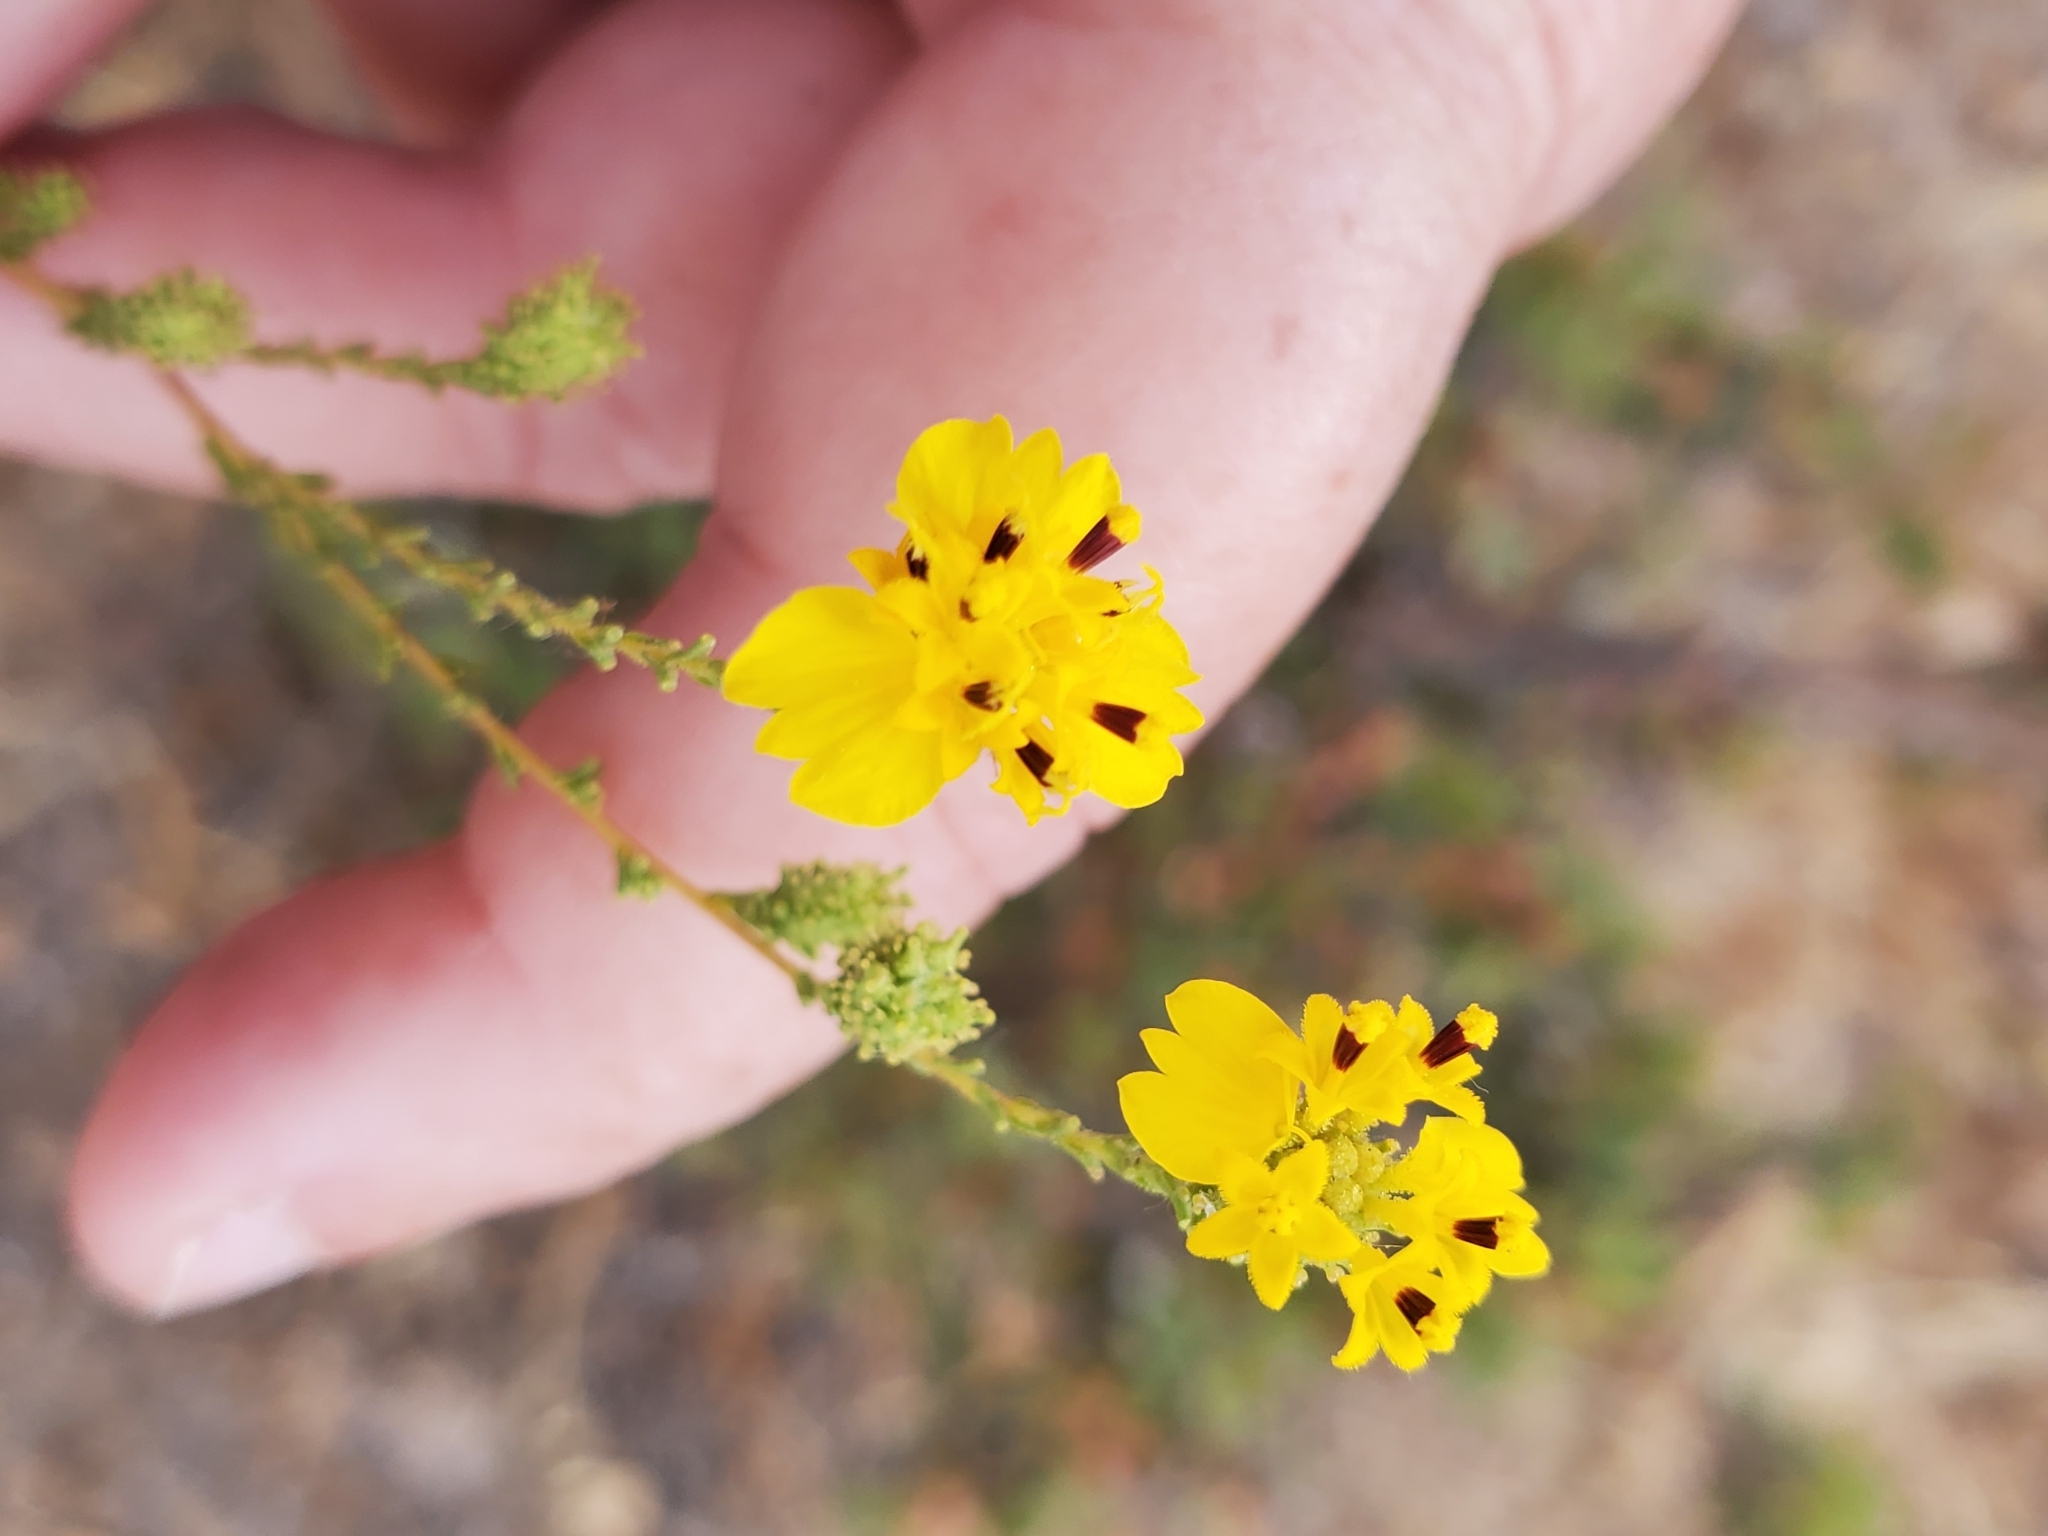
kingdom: Plantae
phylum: Tracheophyta
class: Magnoliopsida
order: Asterales
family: Asteraceae
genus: Holocarpha
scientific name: Holocarpha virgata
